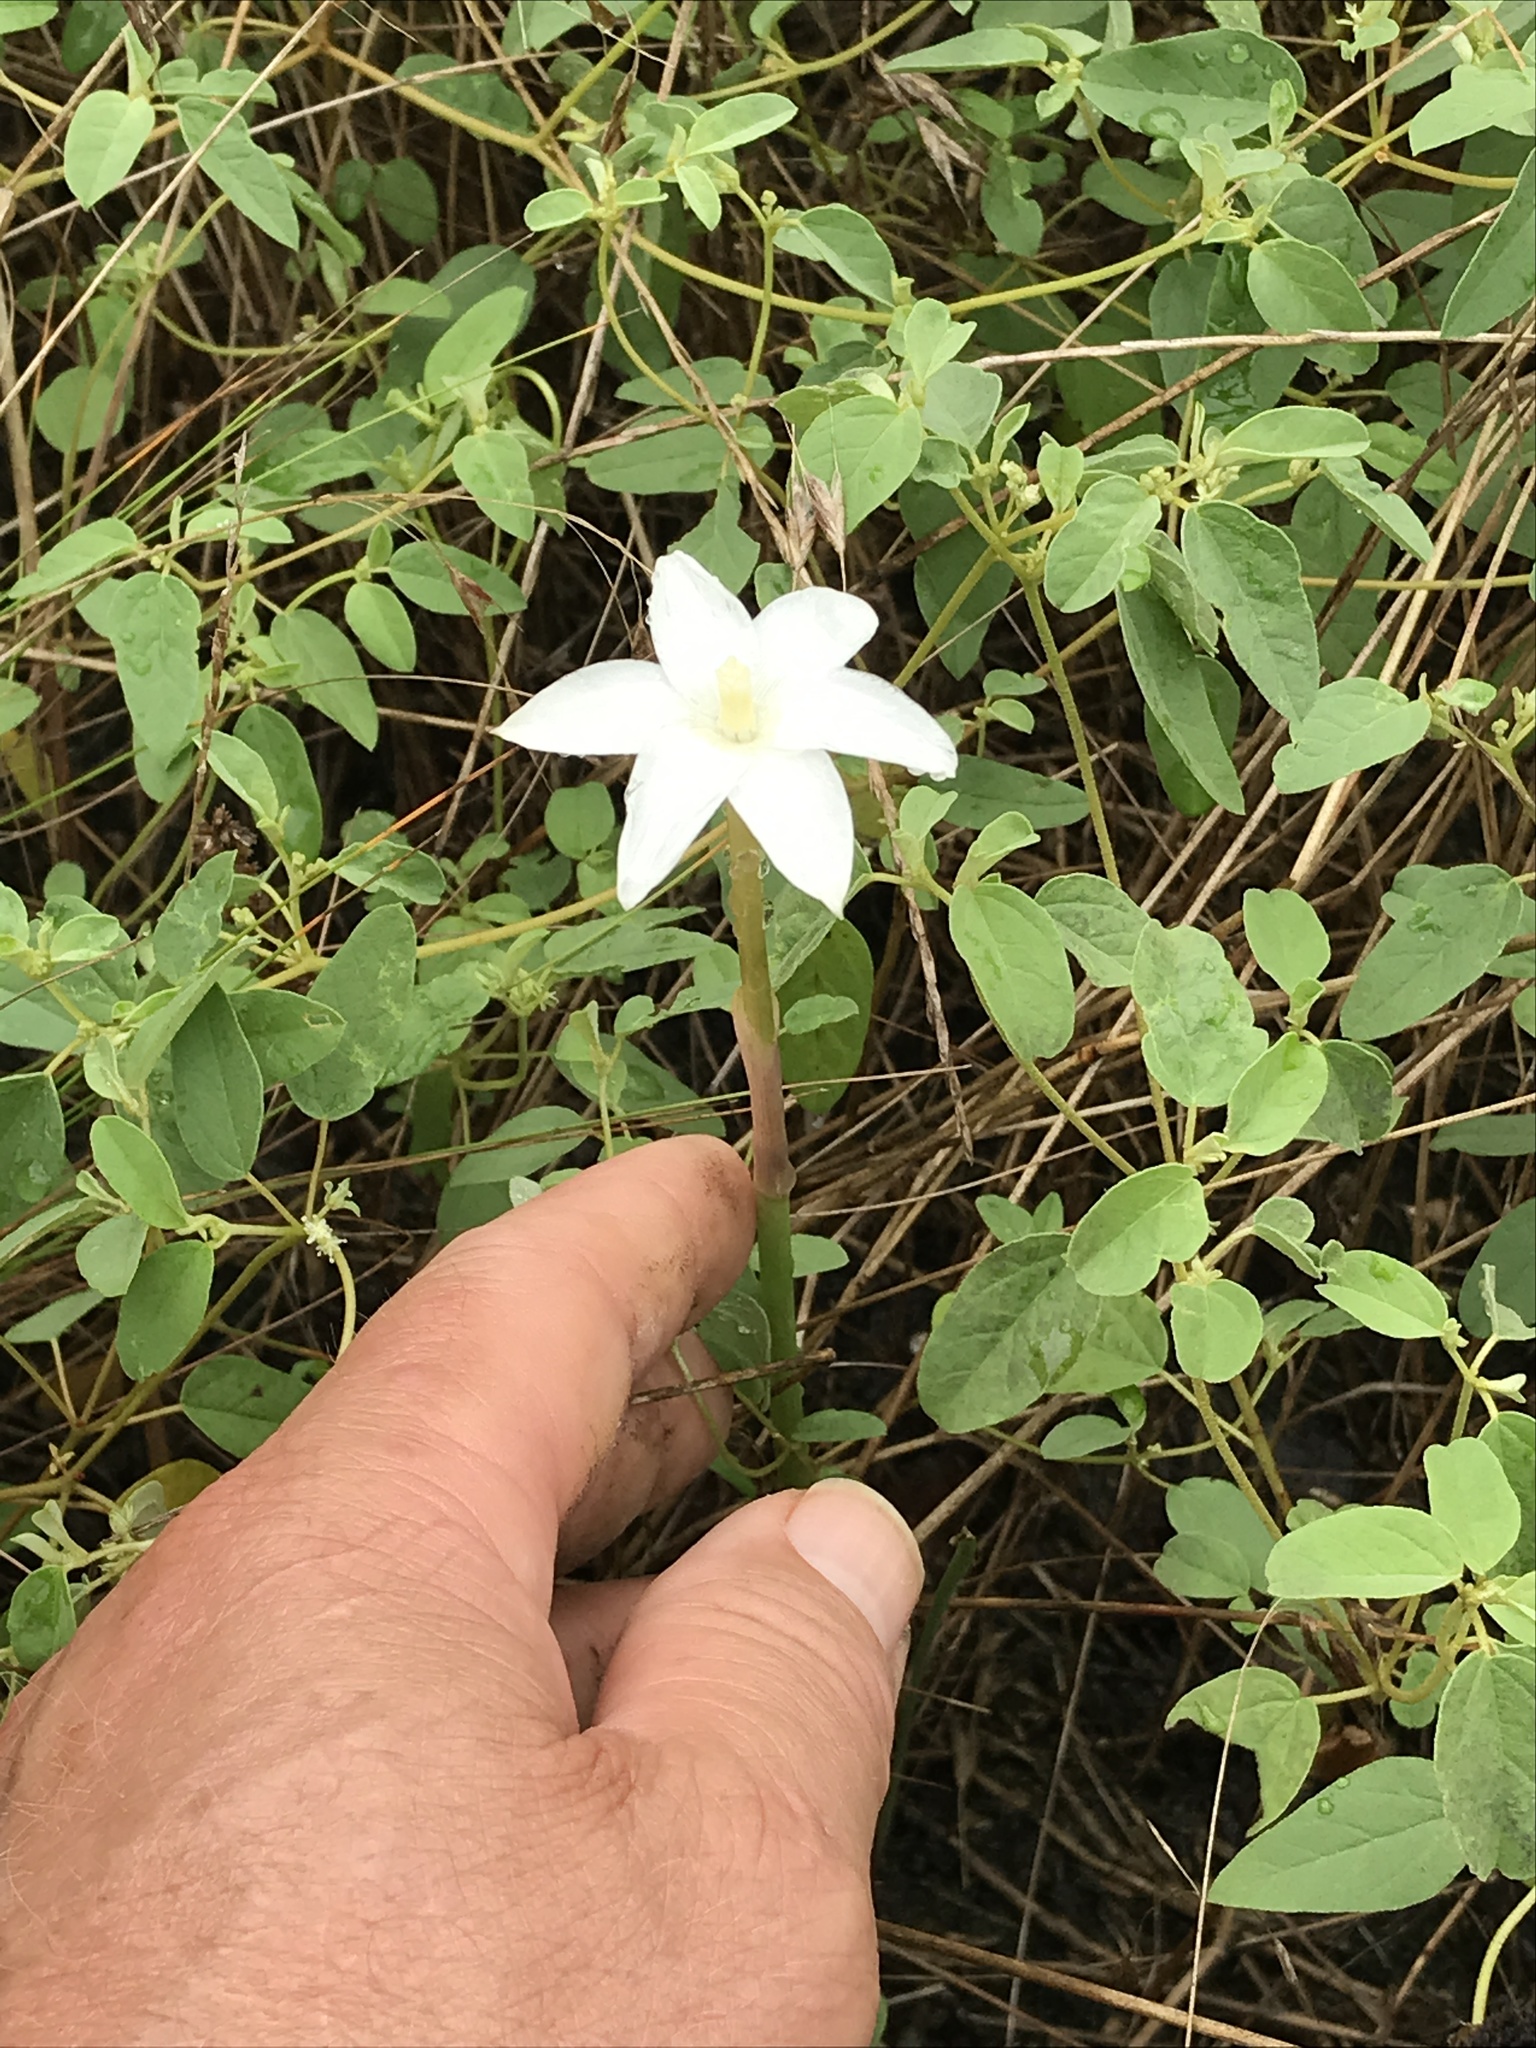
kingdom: Plantae
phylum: Tracheophyta
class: Liliopsida
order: Asparagales
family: Amaryllidaceae
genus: Zephyranthes
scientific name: Zephyranthes chlorosolen
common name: Evening rain-lily
